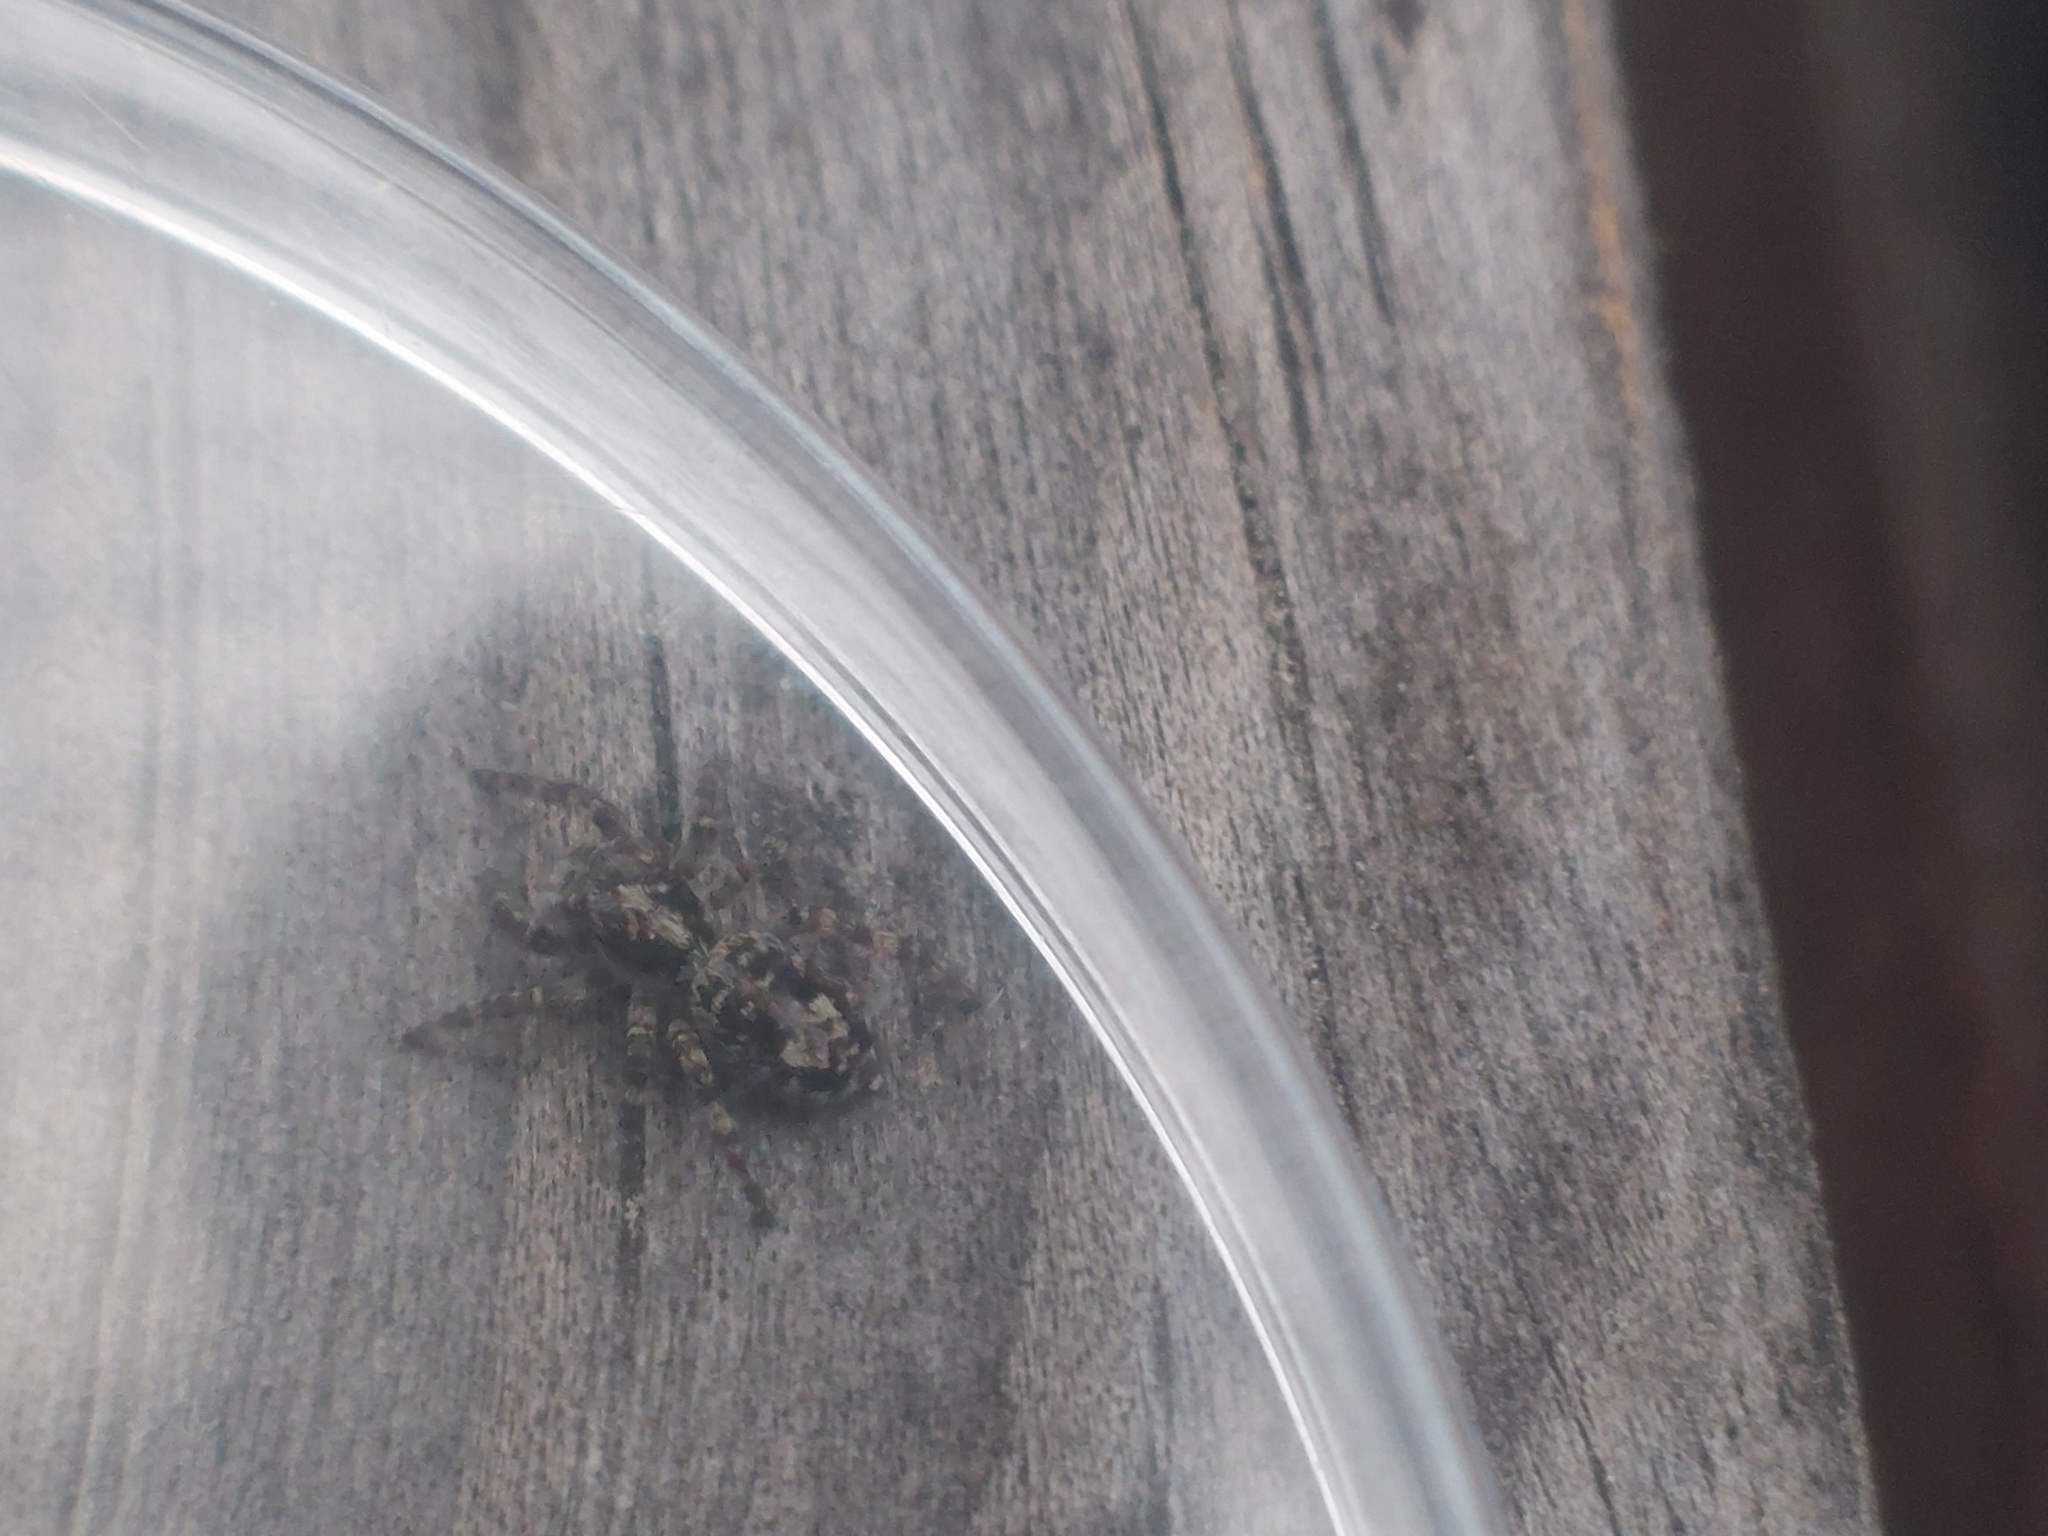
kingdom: Animalia
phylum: Arthropoda
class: Arachnida
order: Araneae
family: Salticidae
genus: Attulus
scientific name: Attulus terebratus
